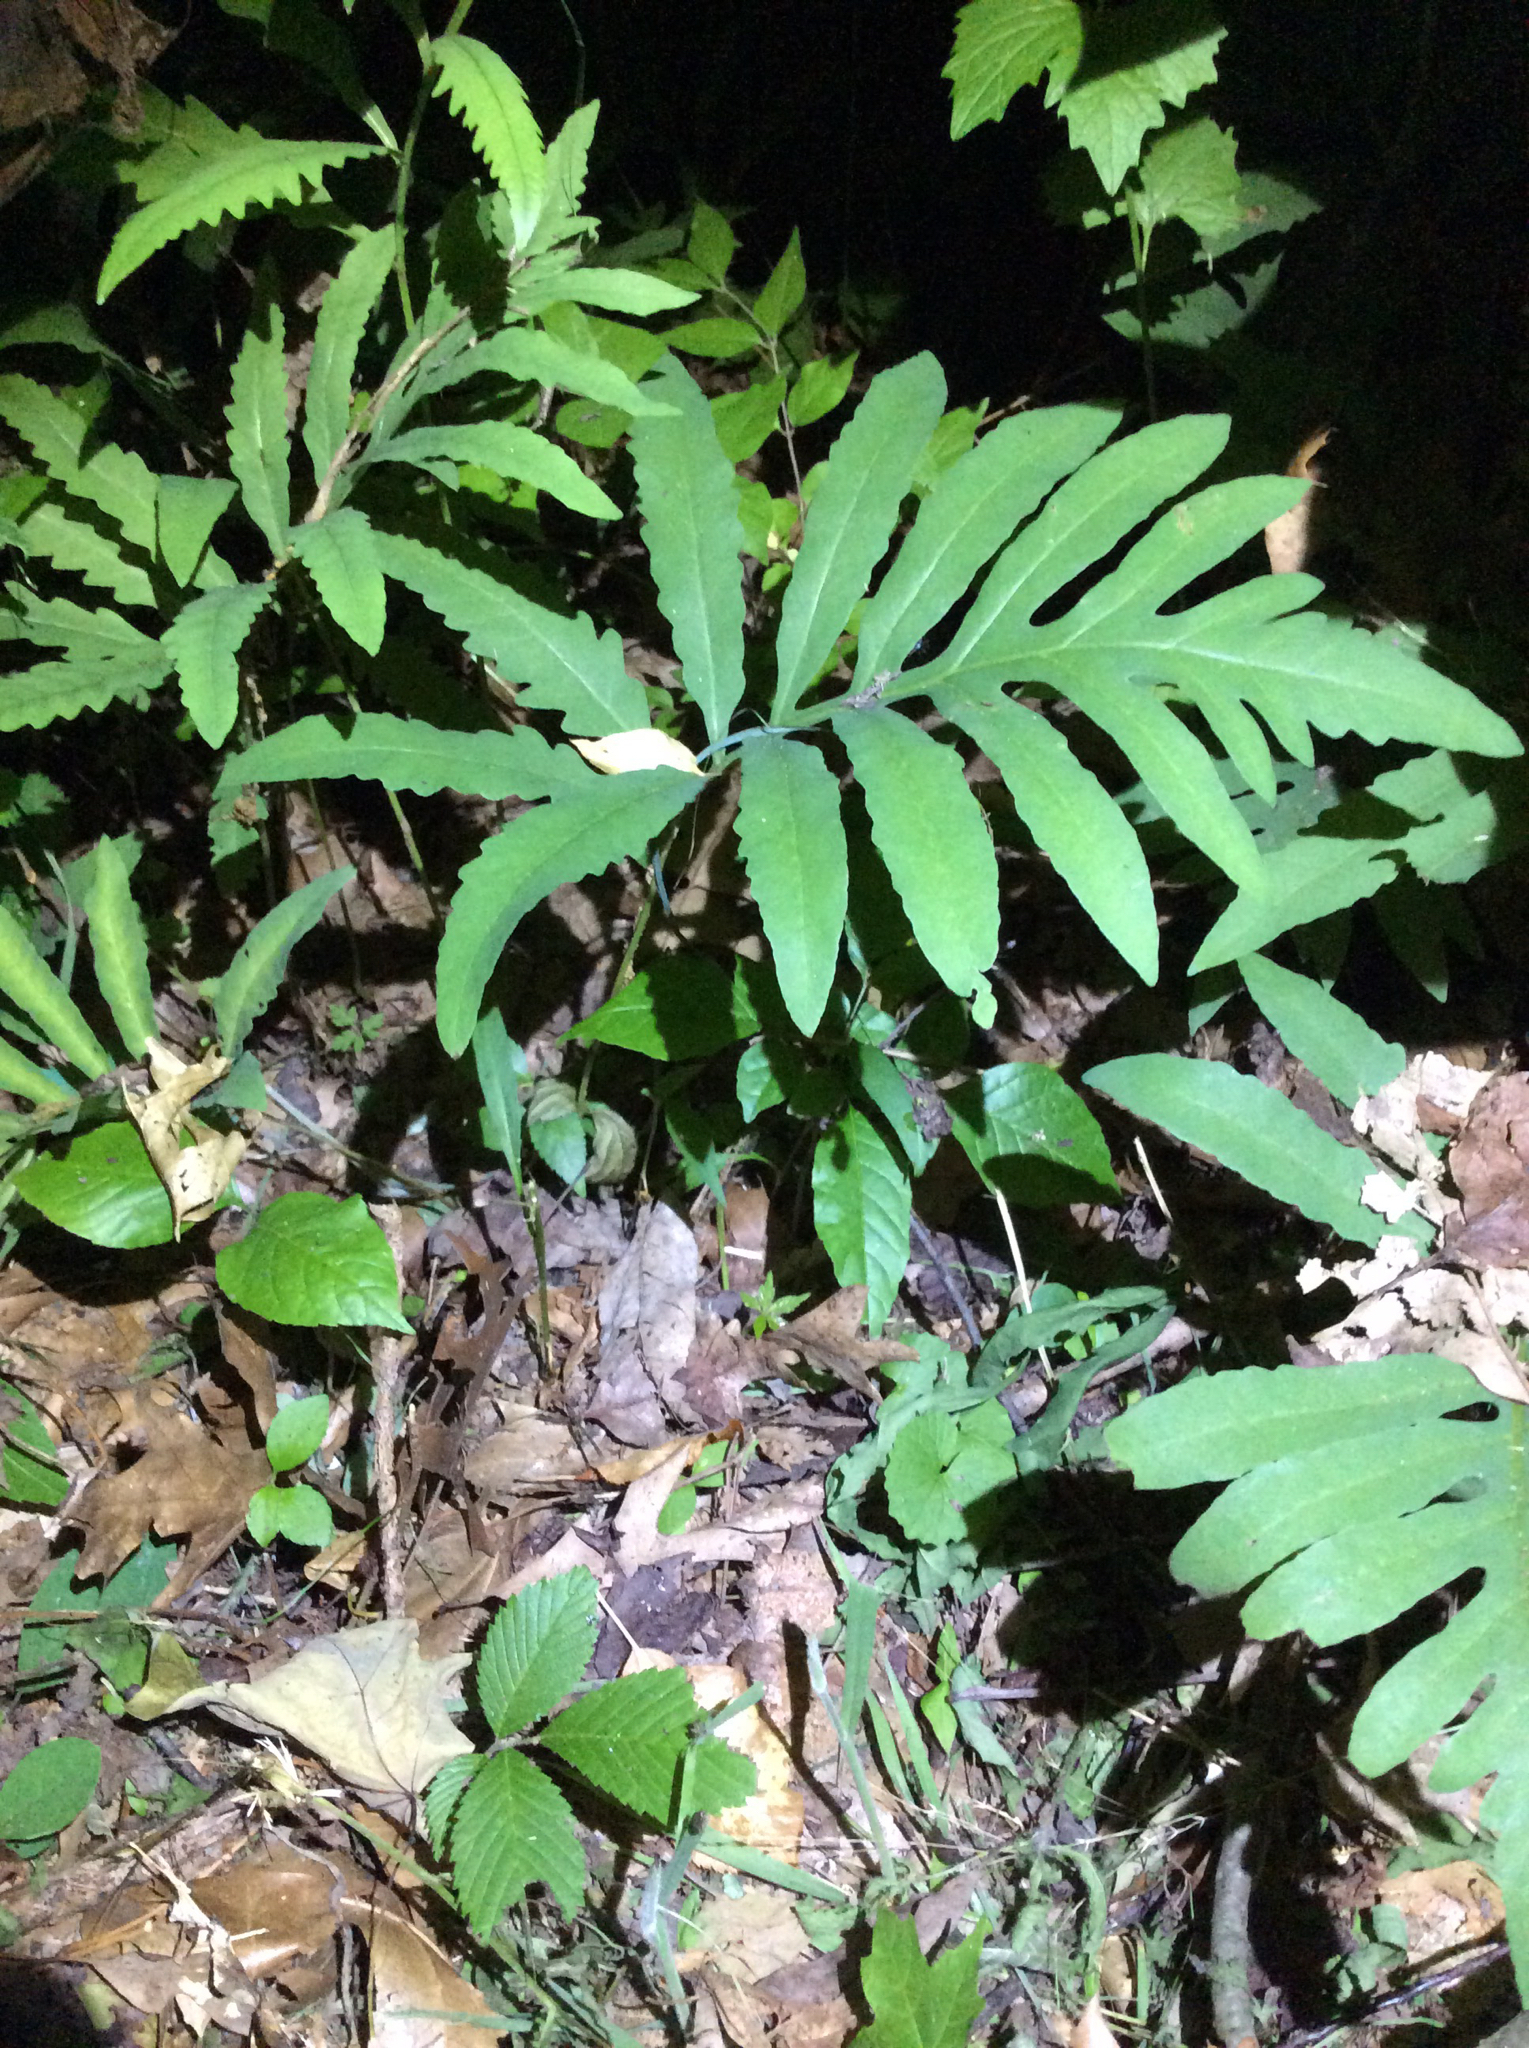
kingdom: Plantae
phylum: Tracheophyta
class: Polypodiopsida
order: Polypodiales
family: Onocleaceae
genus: Onoclea
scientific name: Onoclea sensibilis
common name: Sensitive fern
